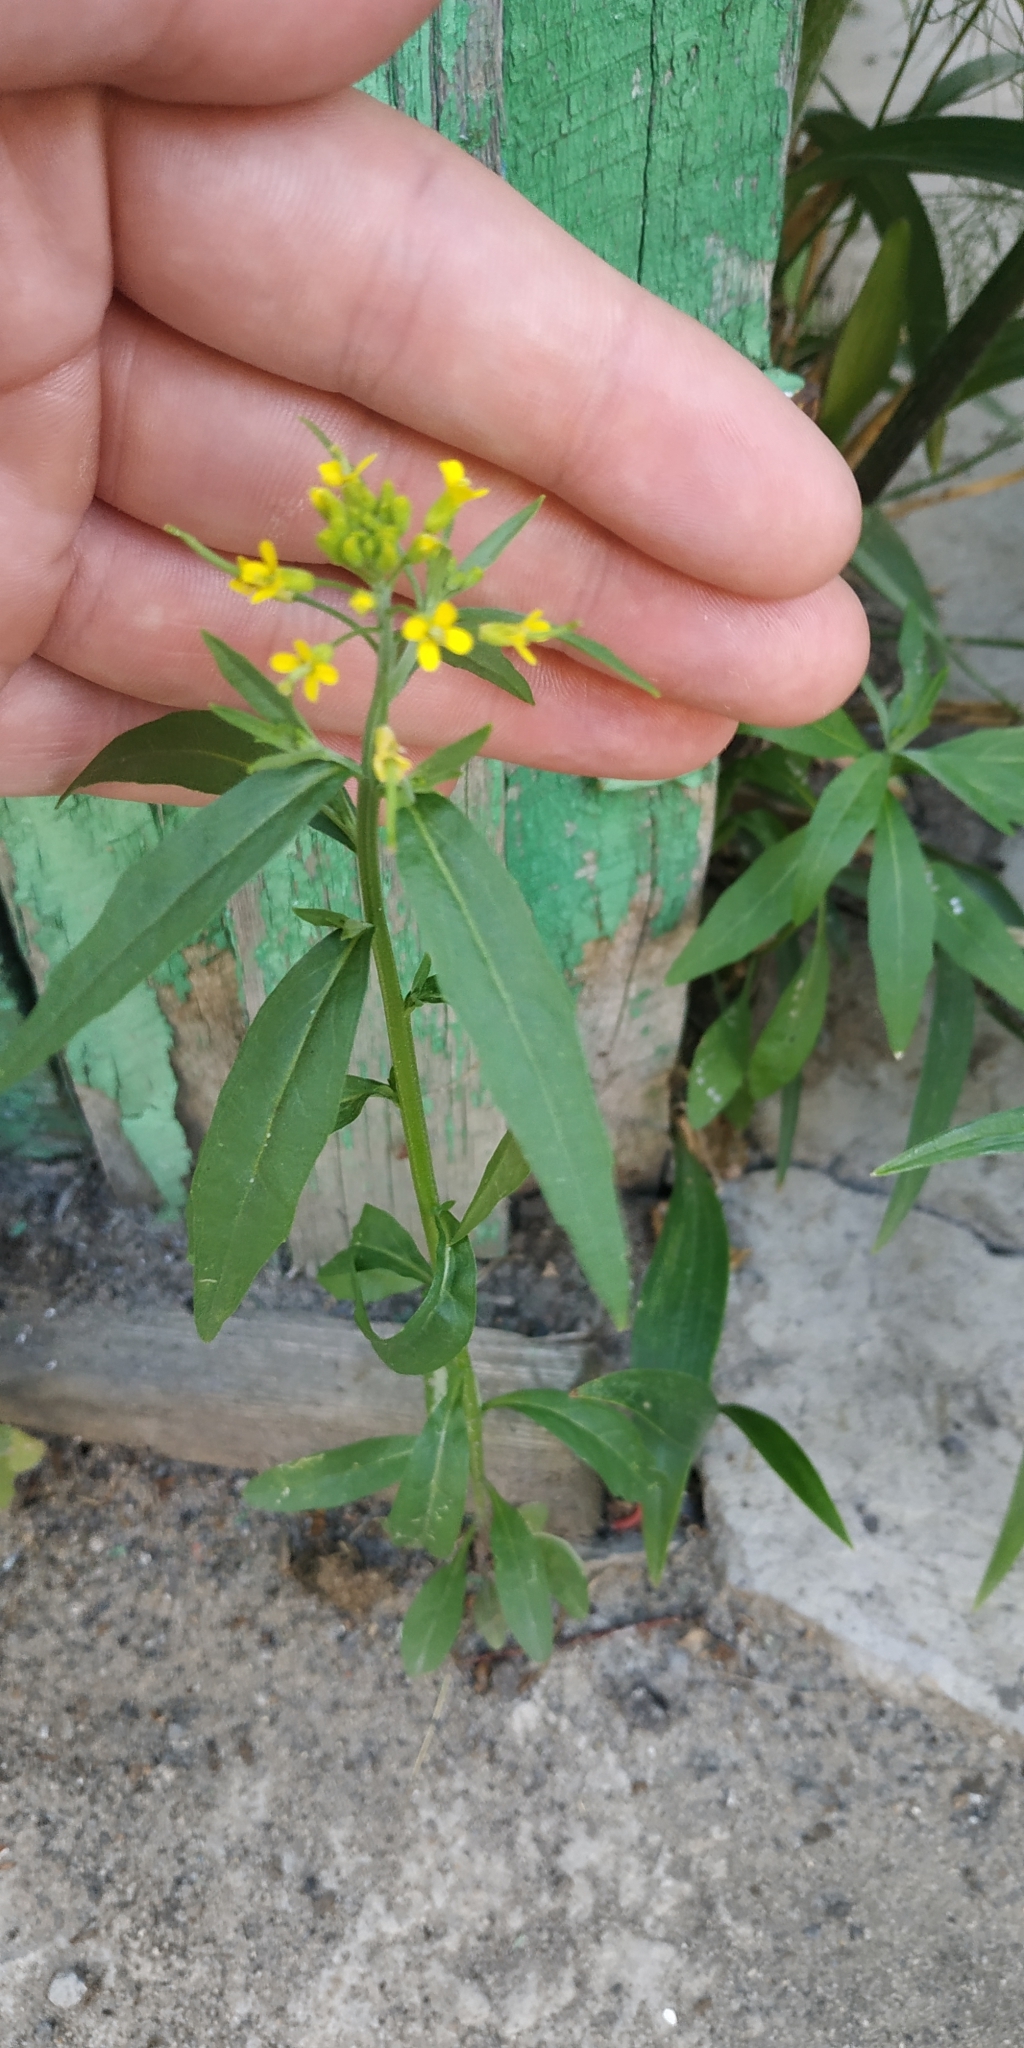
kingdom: Plantae
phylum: Tracheophyta
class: Magnoliopsida
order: Brassicales
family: Brassicaceae
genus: Erysimum
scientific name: Erysimum cheiranthoides
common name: Treacle mustard
